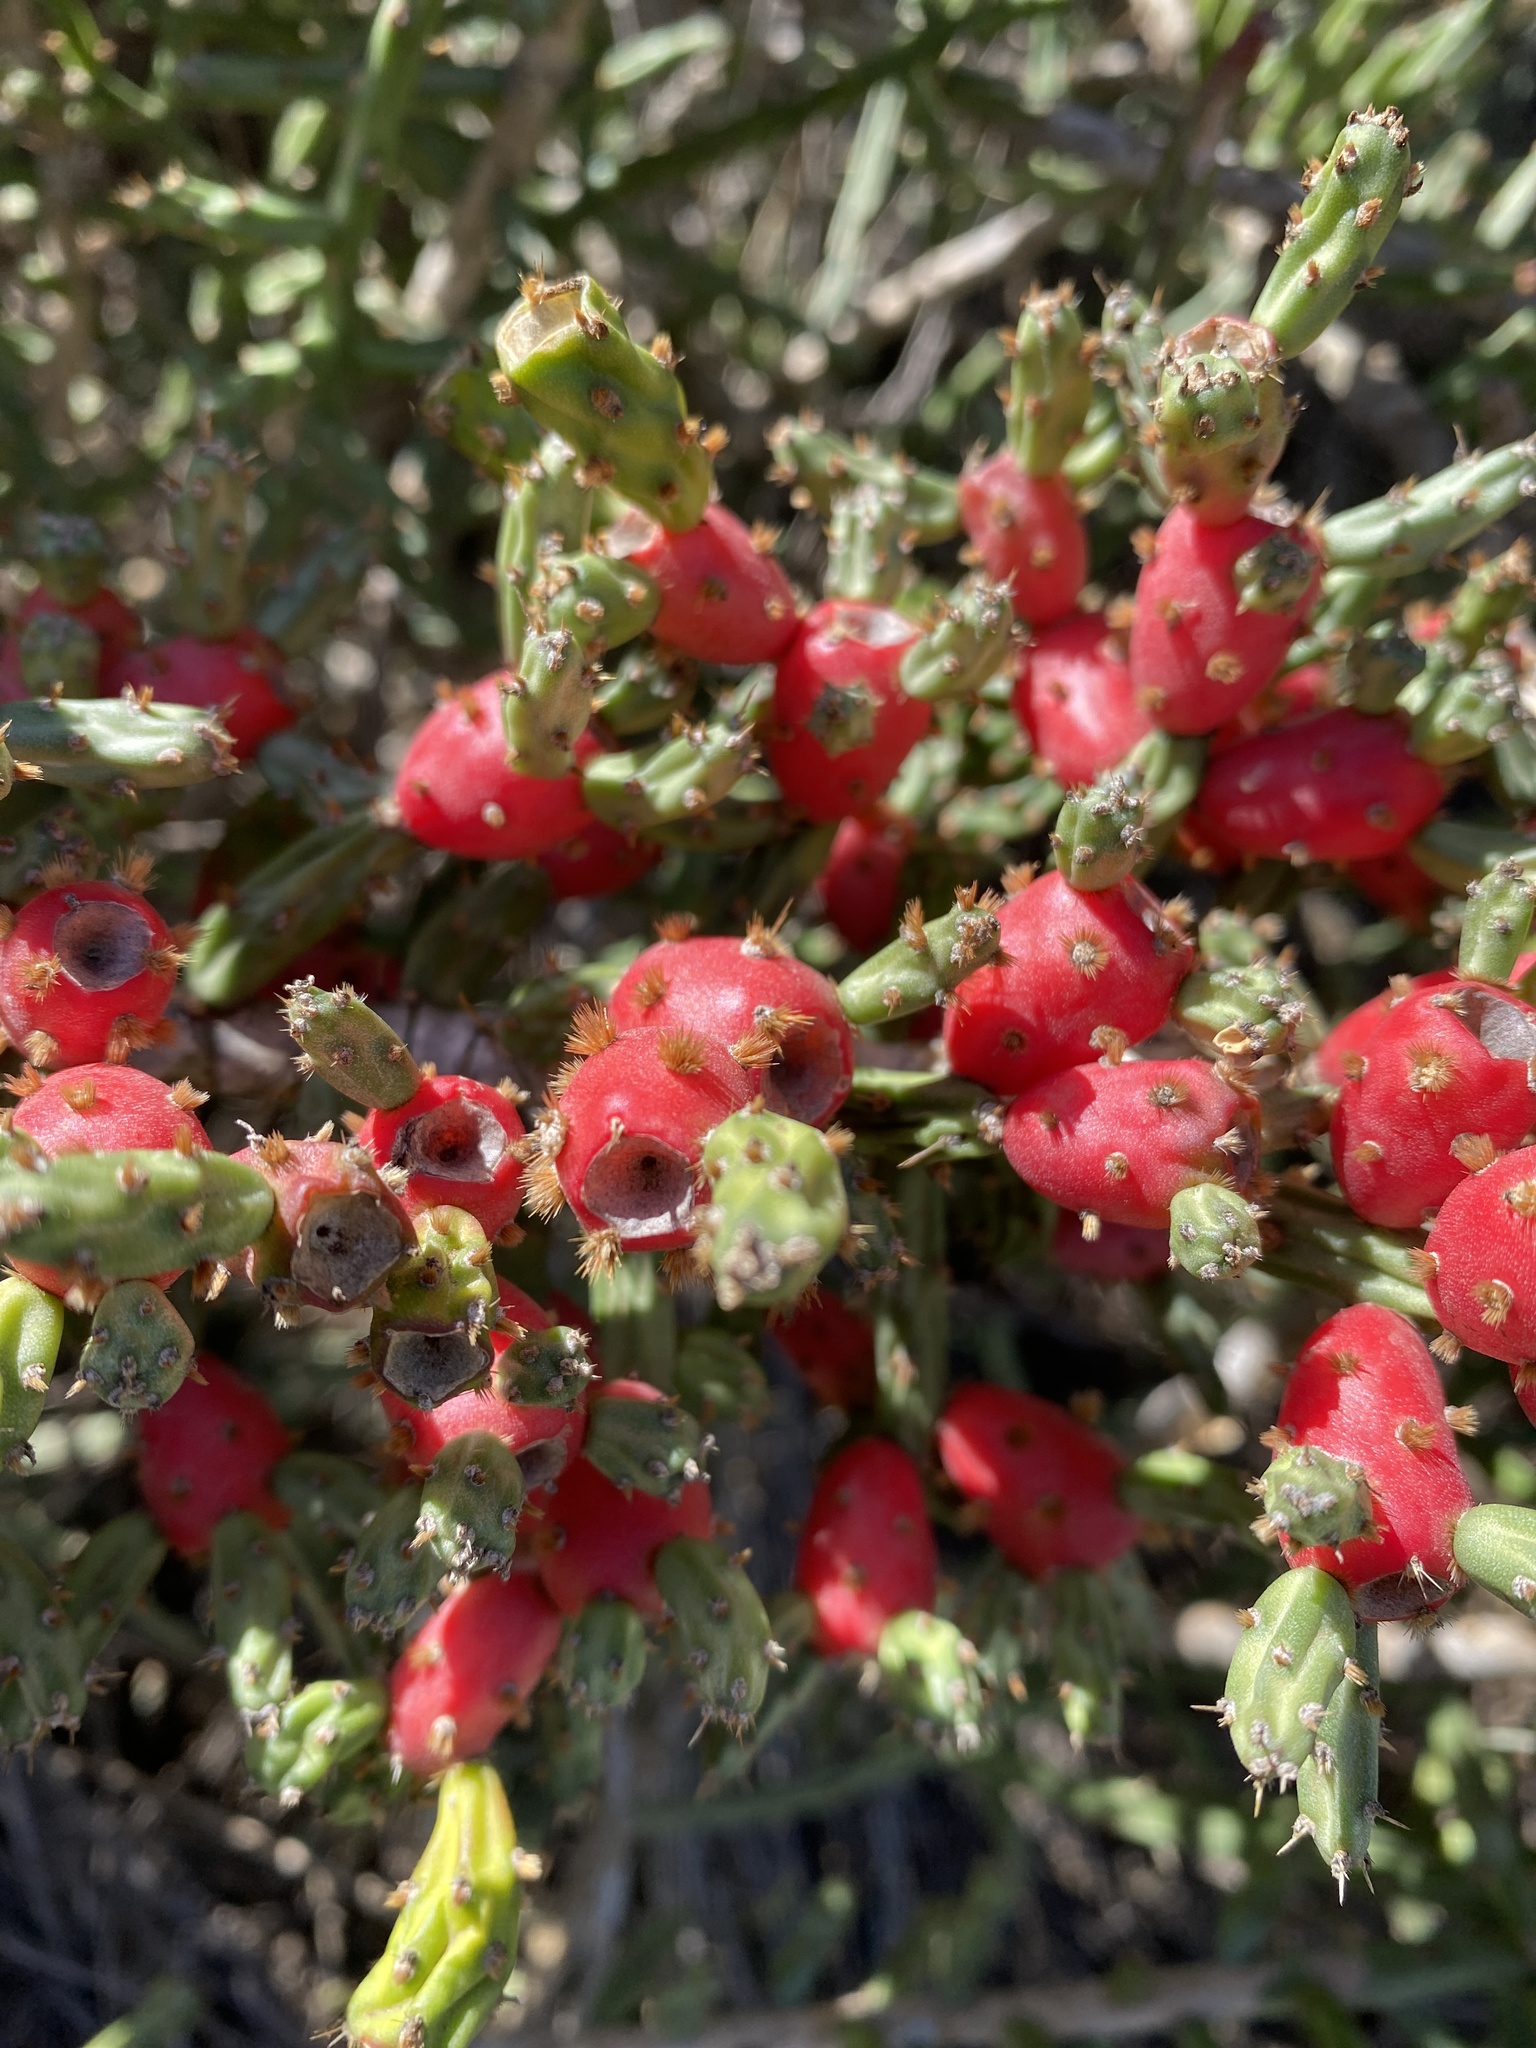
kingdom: Plantae
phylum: Tracheophyta
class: Magnoliopsida
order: Caryophyllales
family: Cactaceae
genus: Cylindropuntia
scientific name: Cylindropuntia leptocaulis
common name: Christmas cactus
